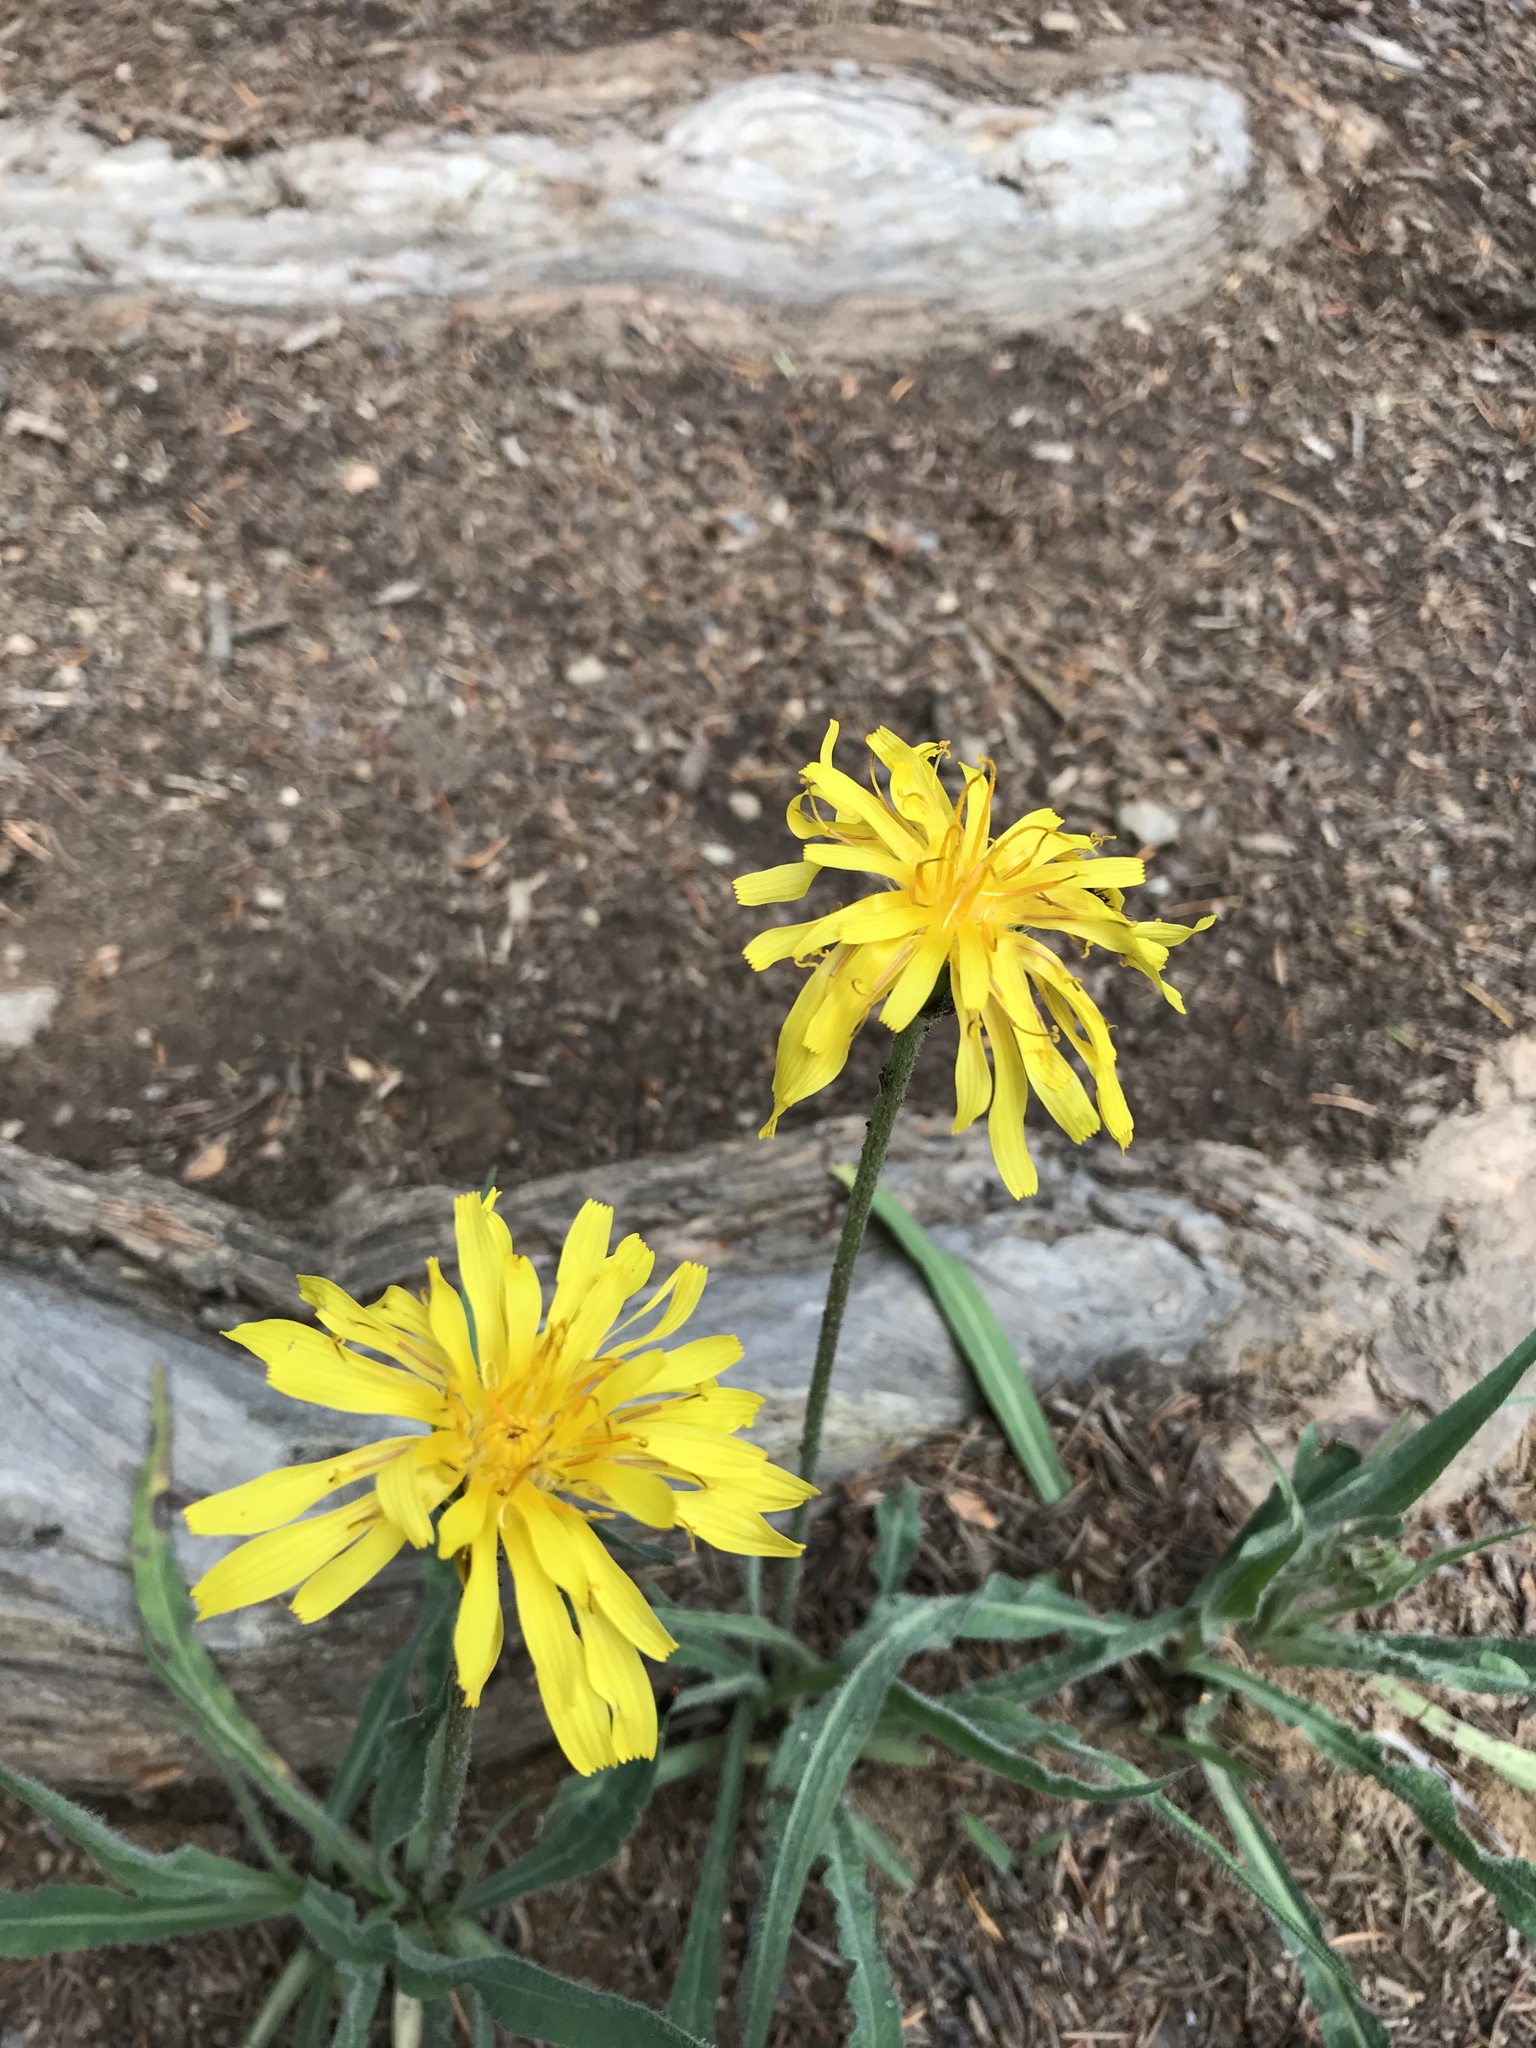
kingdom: Plantae
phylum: Tracheophyta
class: Magnoliopsida
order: Asterales
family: Asteraceae
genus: Agoseris
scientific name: Agoseris glauca
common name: Prairie agoseris
